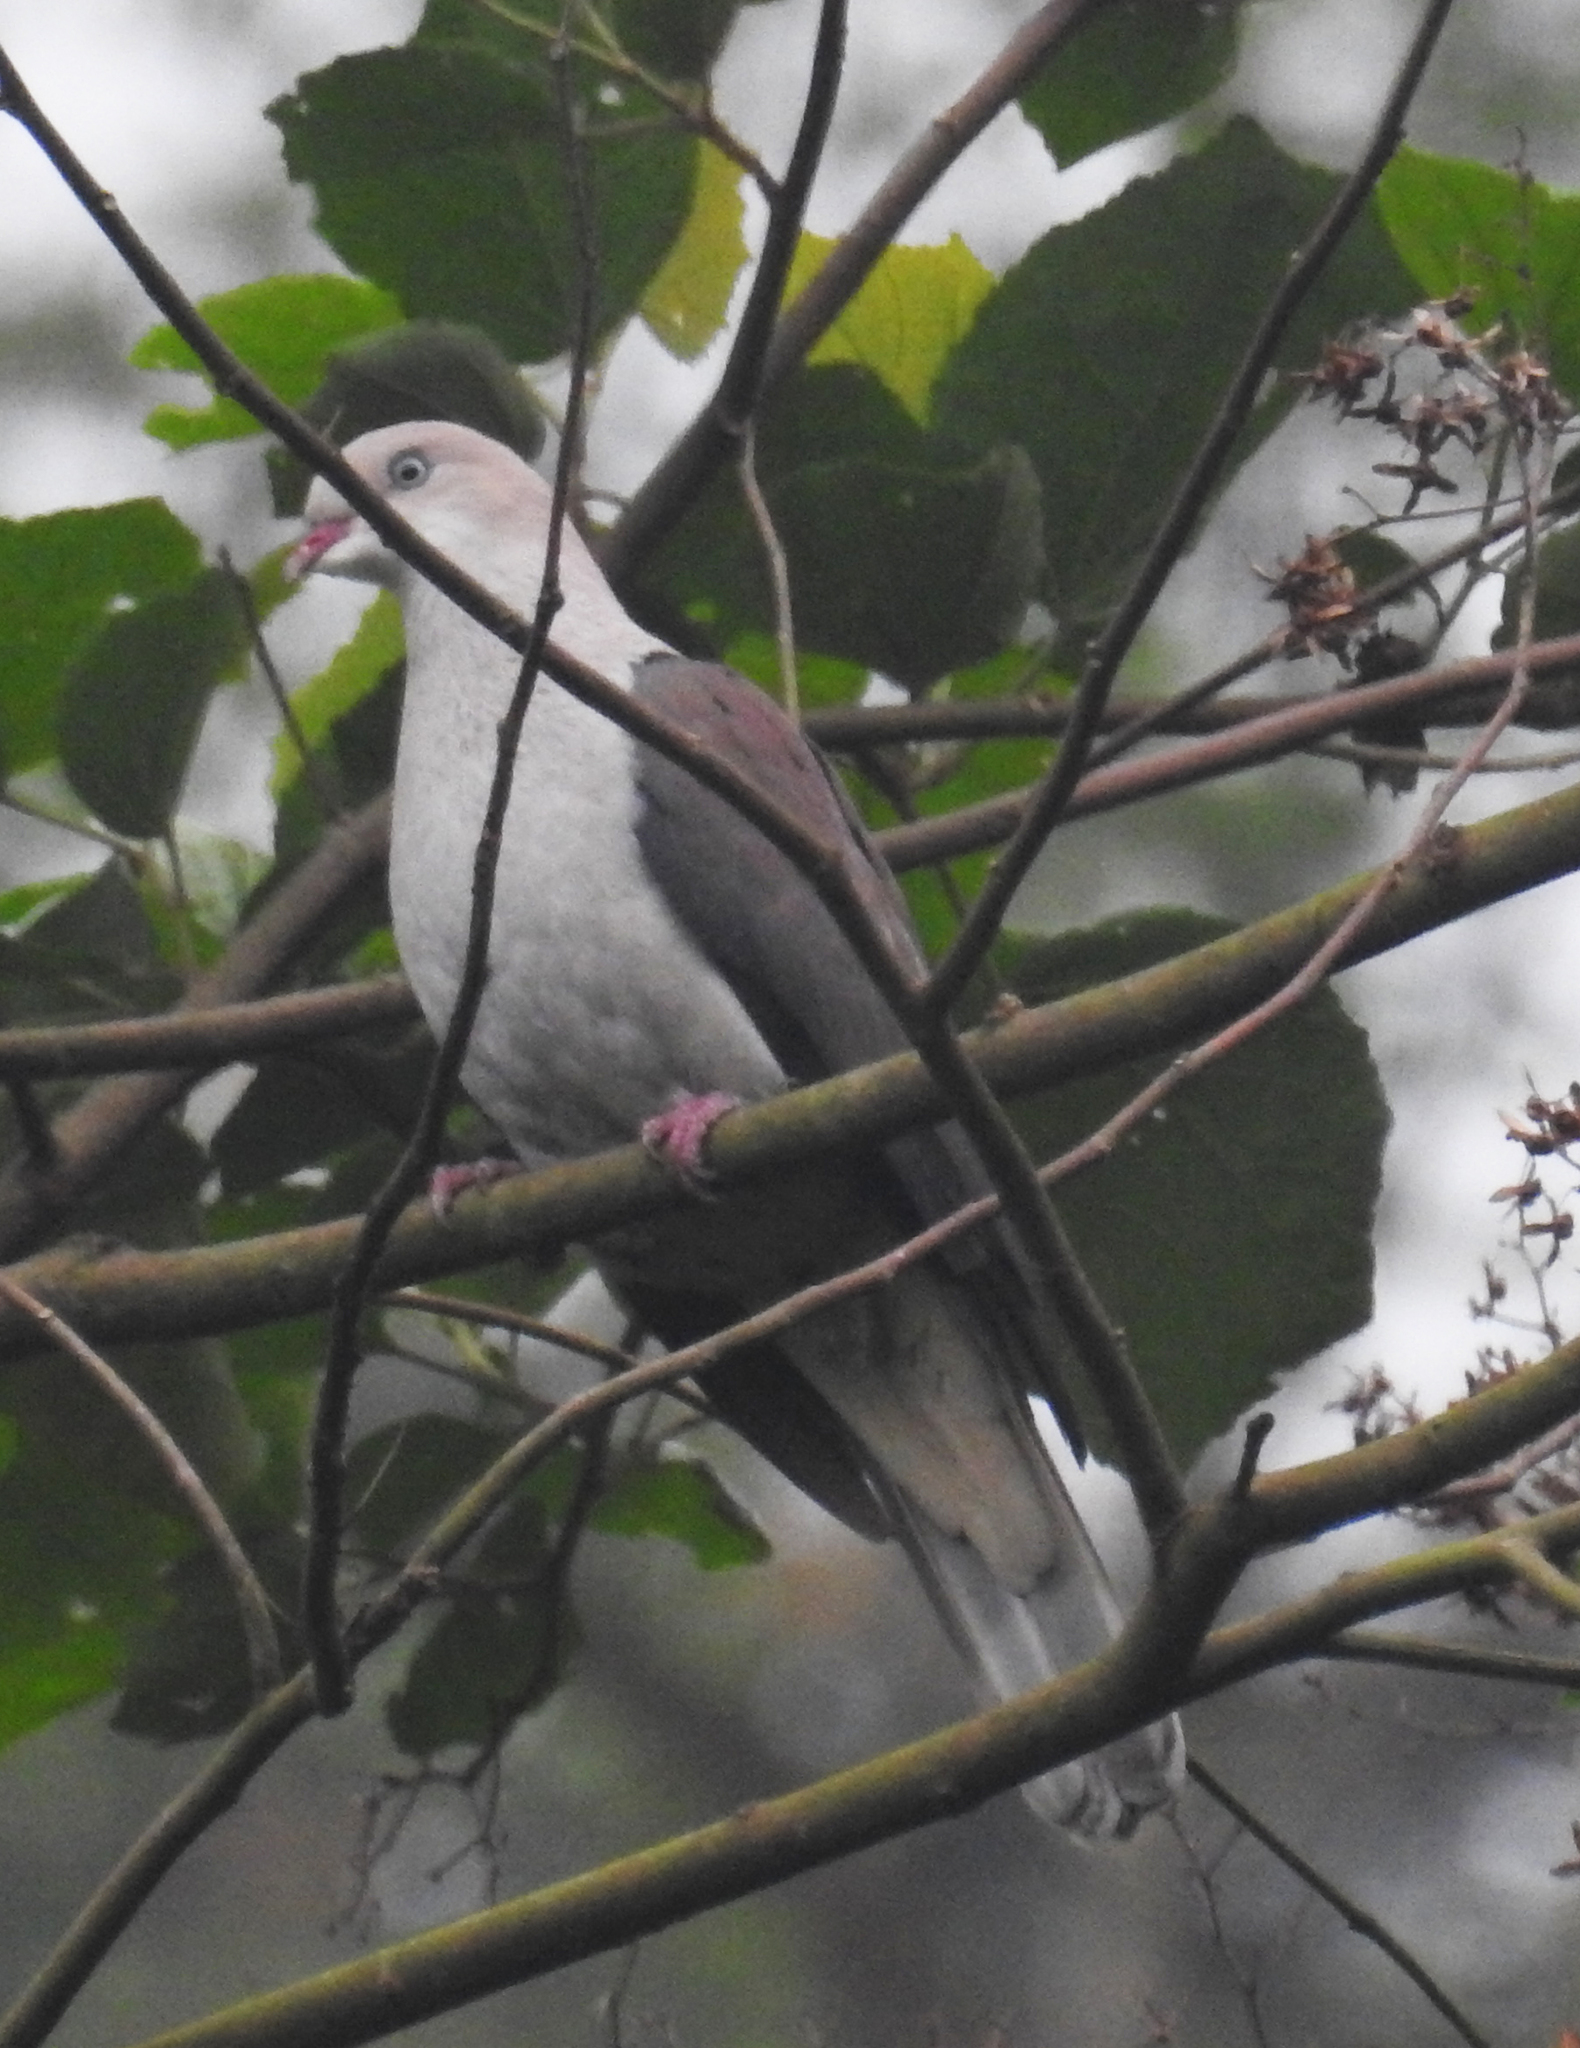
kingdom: Animalia
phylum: Chordata
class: Aves
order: Columbiformes
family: Columbidae
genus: Ducula
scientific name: Ducula badia
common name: Mountain imperial pigeon
